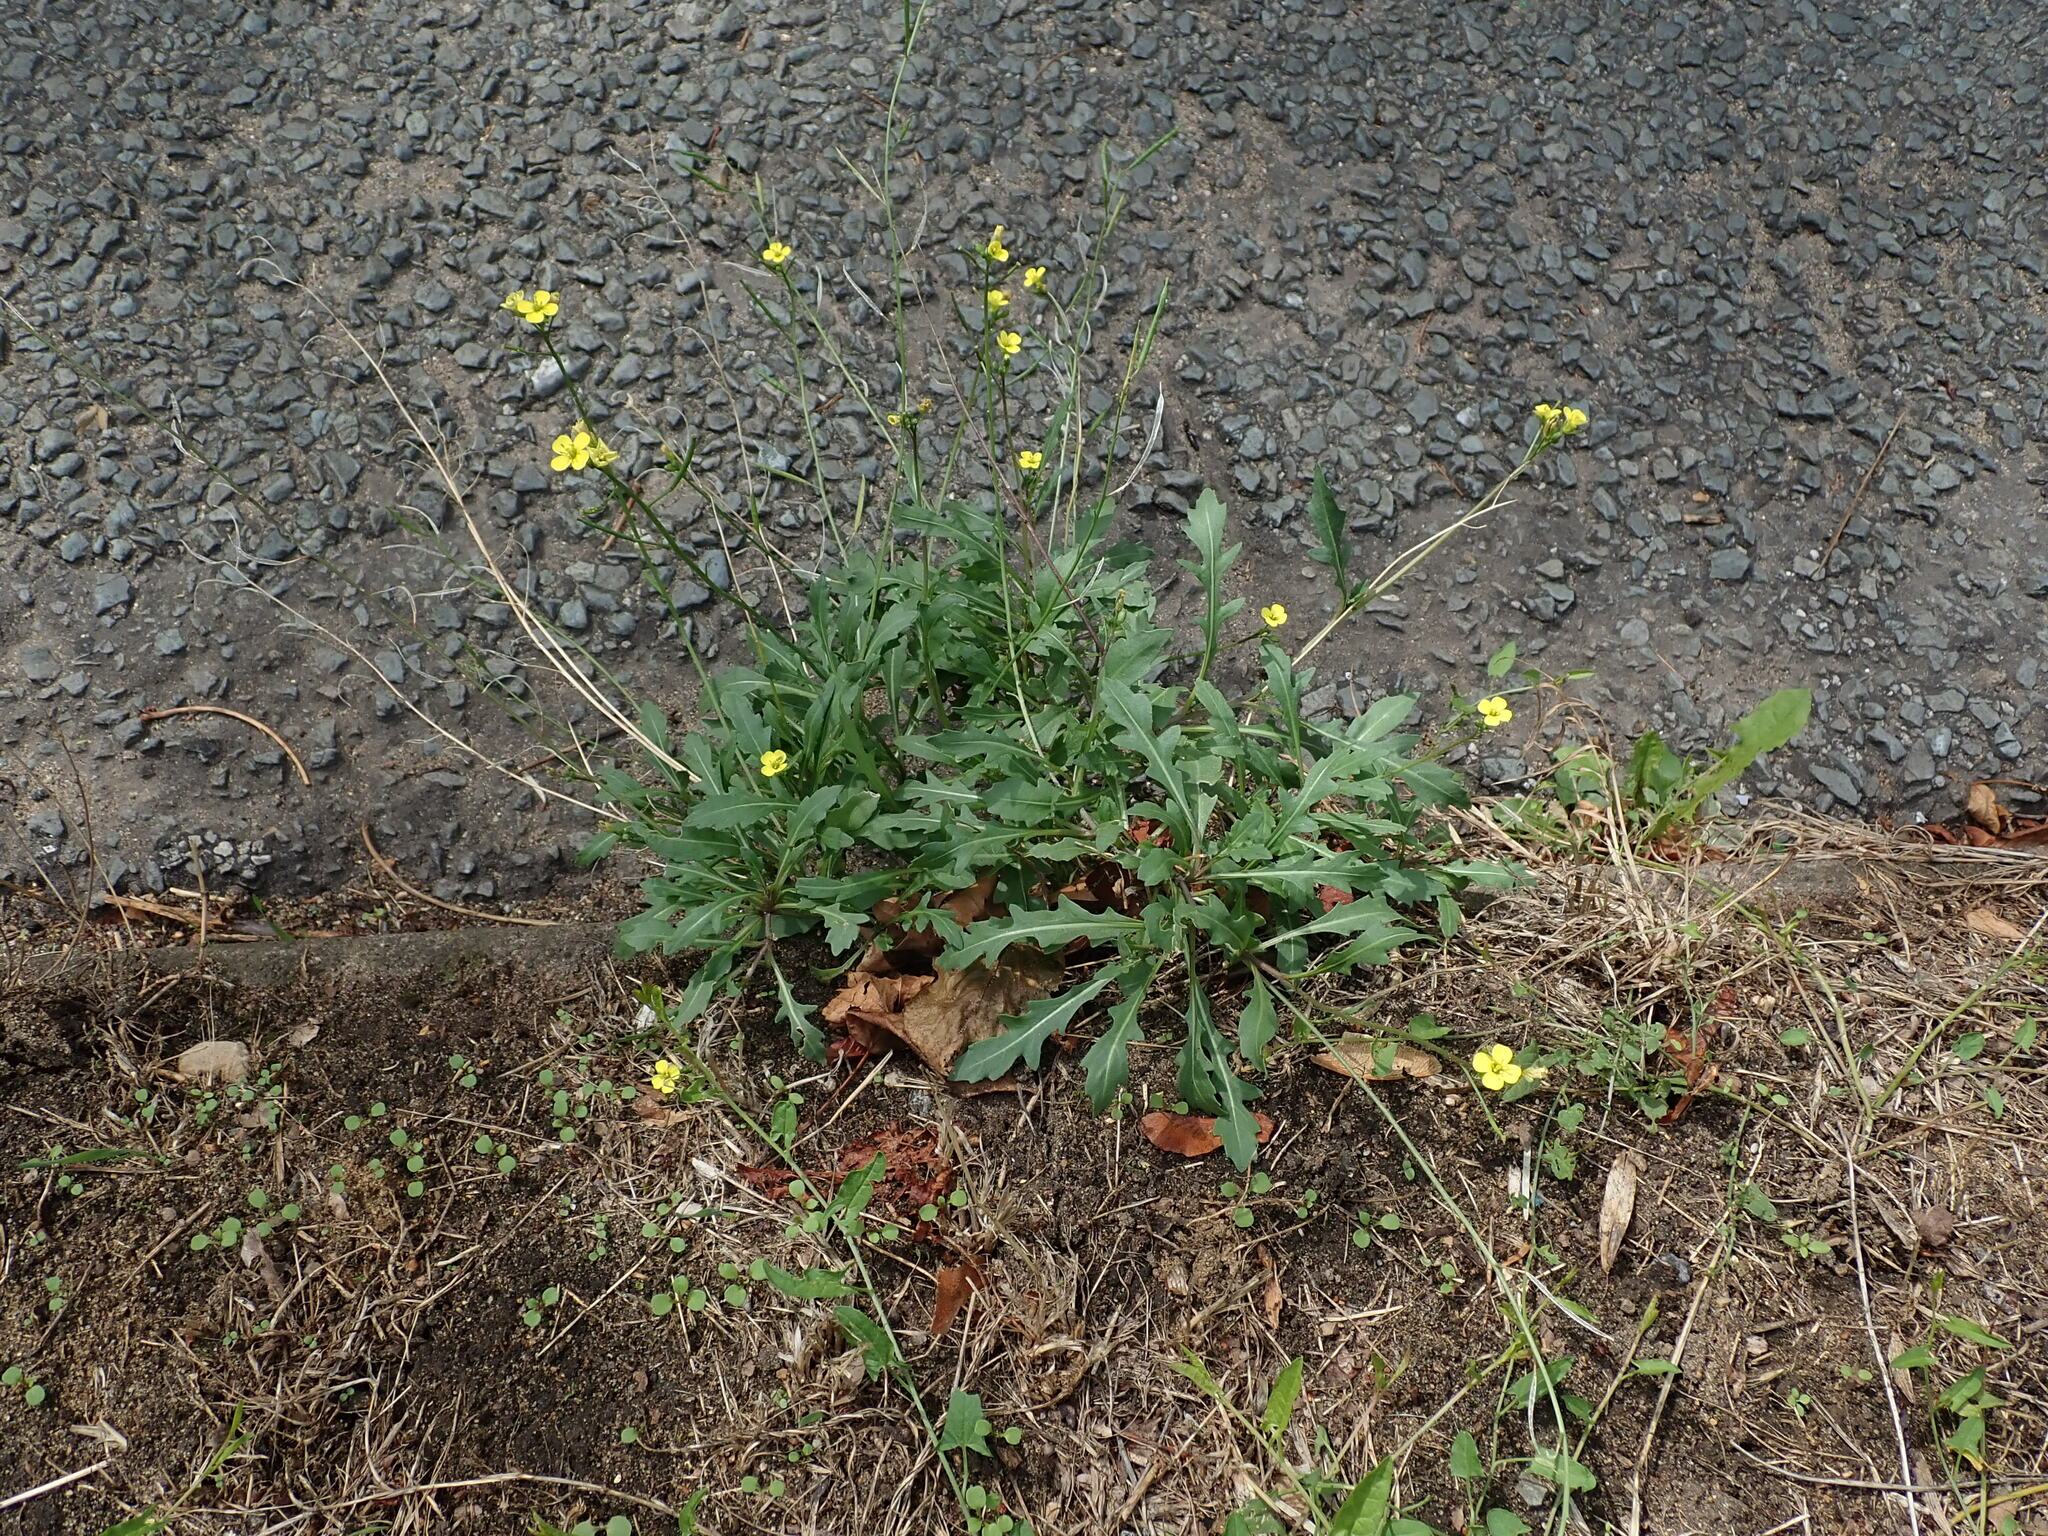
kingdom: Plantae
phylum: Tracheophyta
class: Magnoliopsida
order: Brassicales
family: Brassicaceae
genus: Diplotaxis
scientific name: Diplotaxis muralis
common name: Annual wall-rocket
